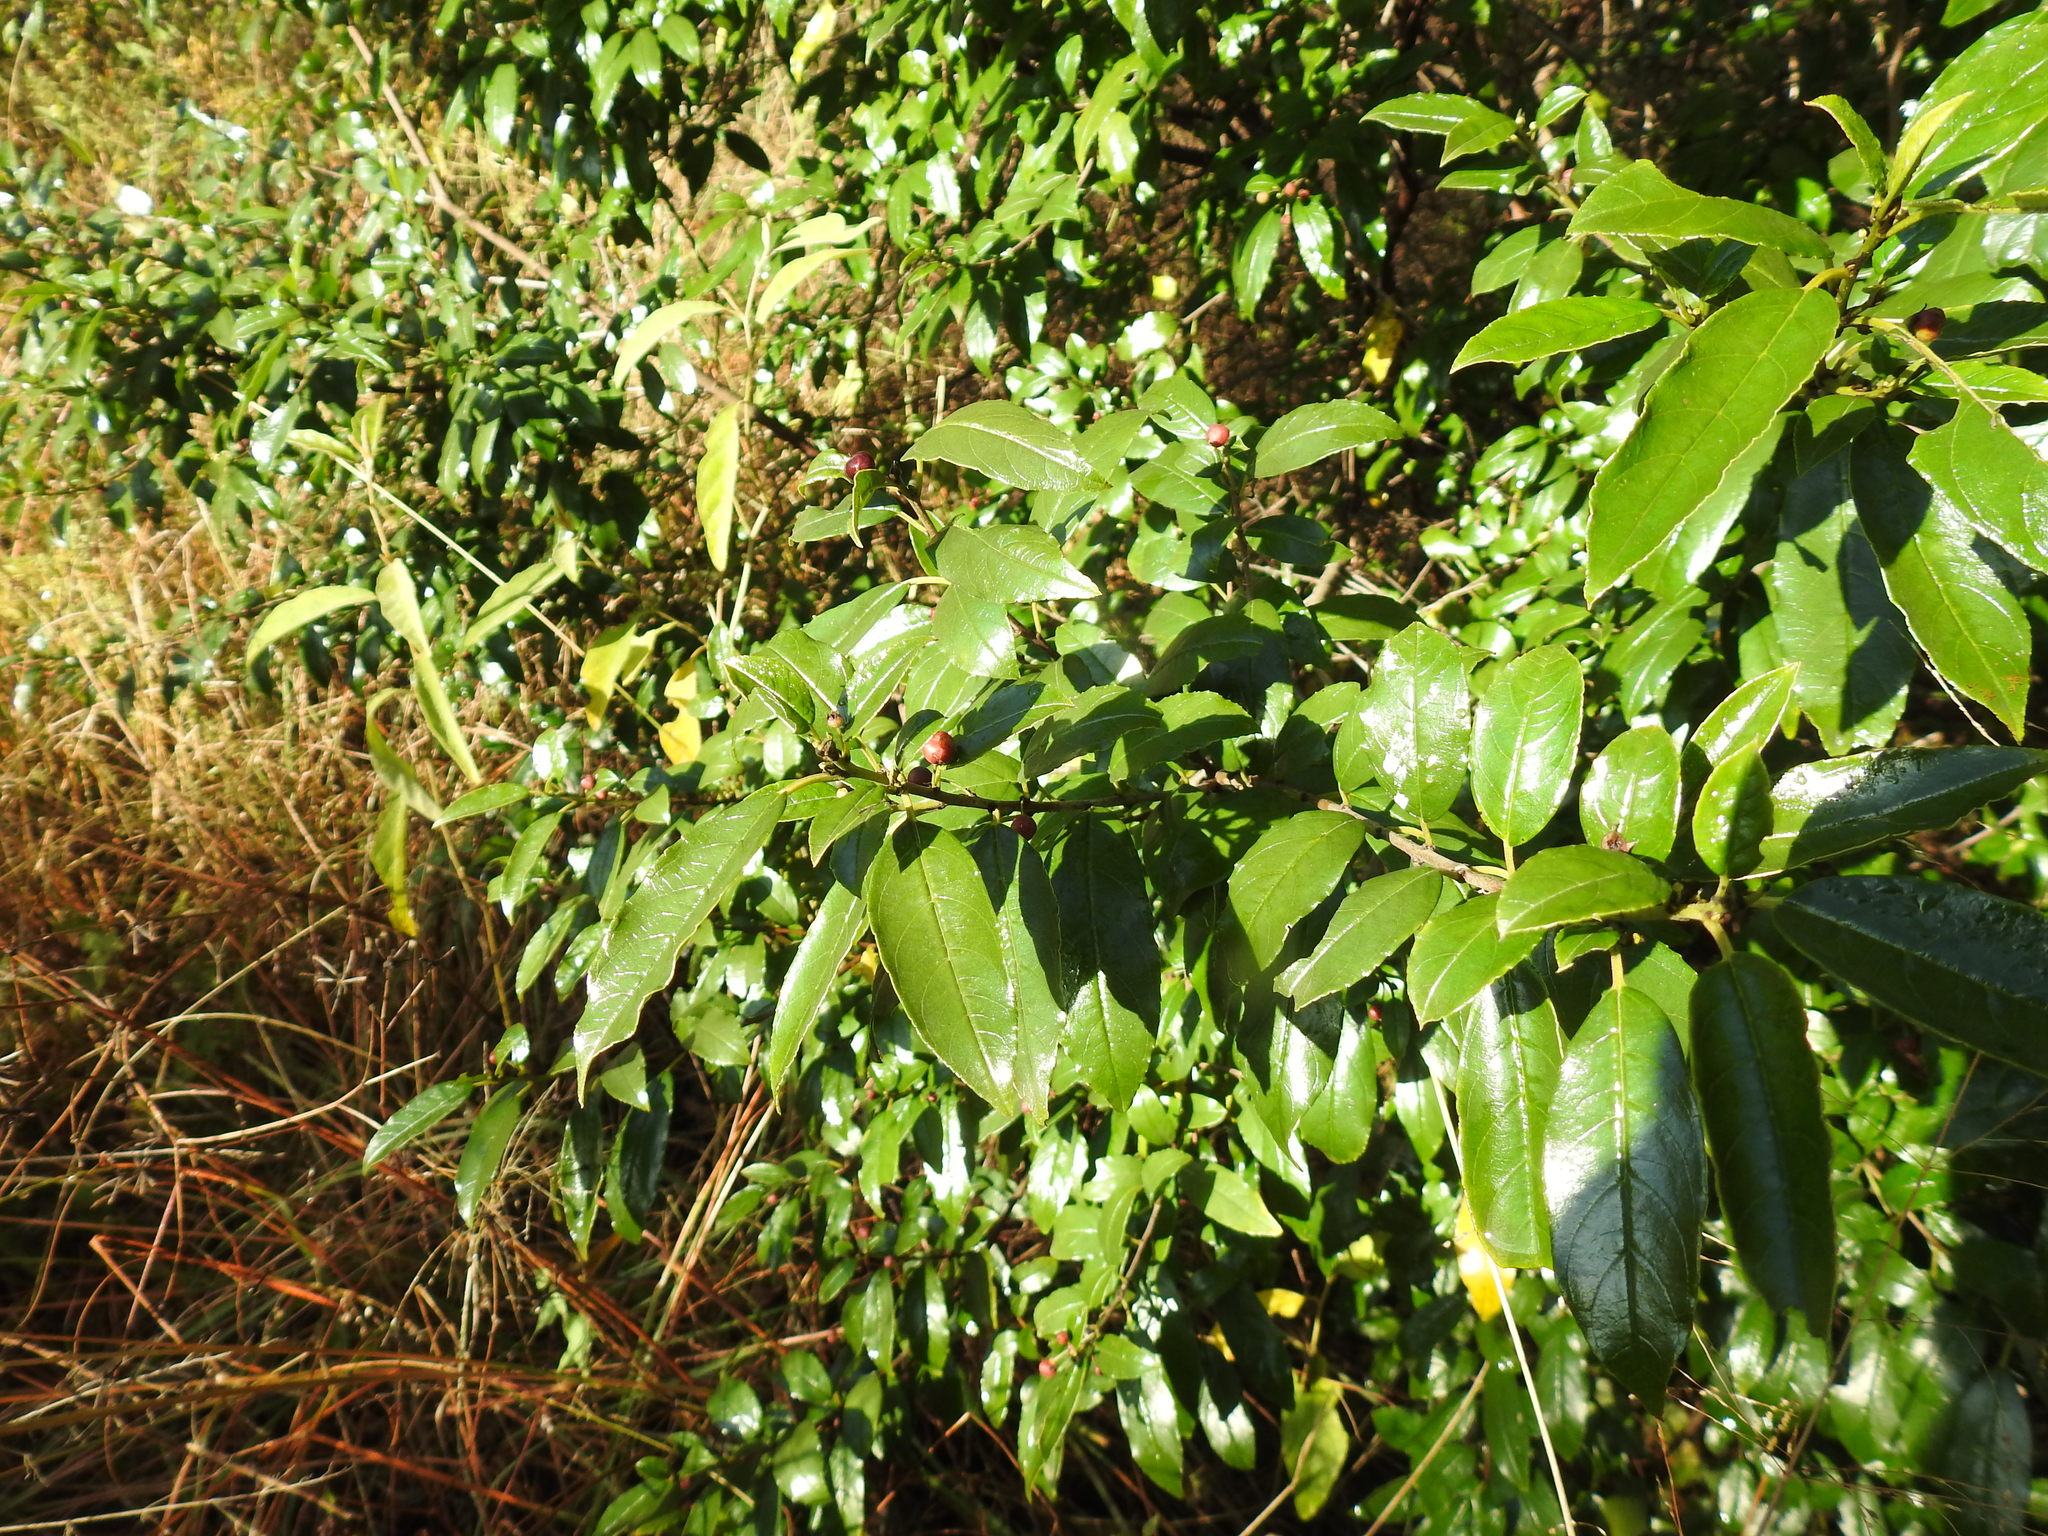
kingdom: Plantae
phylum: Tracheophyta
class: Magnoliopsida
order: Rosales
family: Rhamnaceae
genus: Rhamnus
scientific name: Rhamnus prinoides
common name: Dogwood
